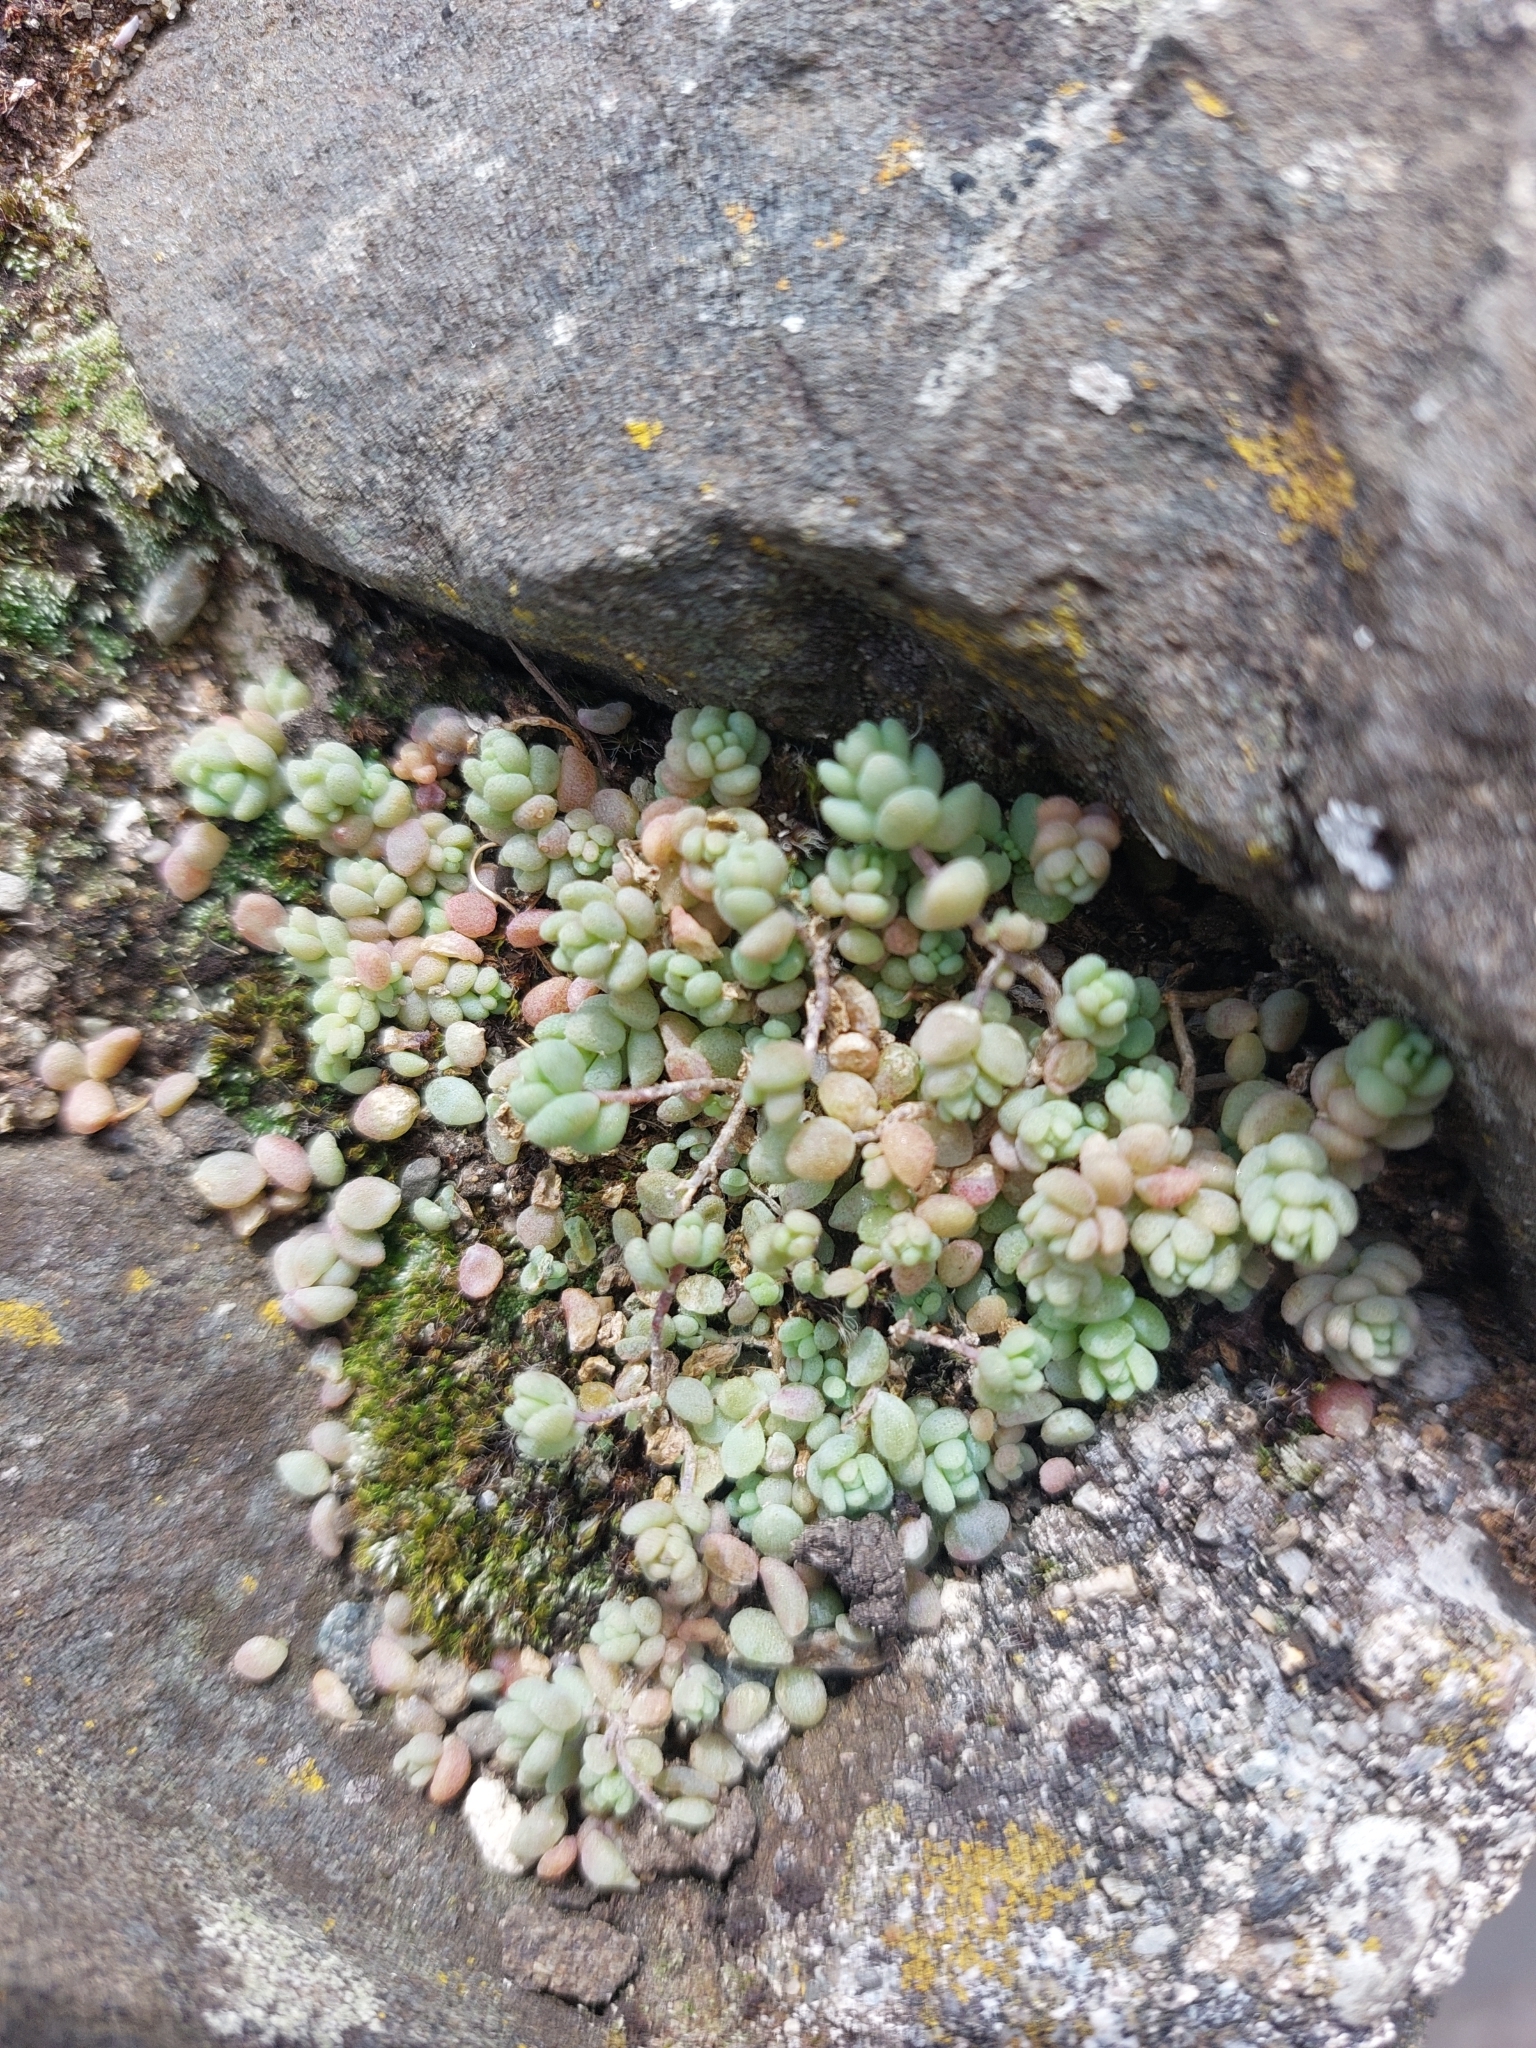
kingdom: Plantae
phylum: Tracheophyta
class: Magnoliopsida
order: Saxifragales
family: Crassulaceae
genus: Sedum
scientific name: Sedum dasyphyllum
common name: Thick-leaf stonecrop
